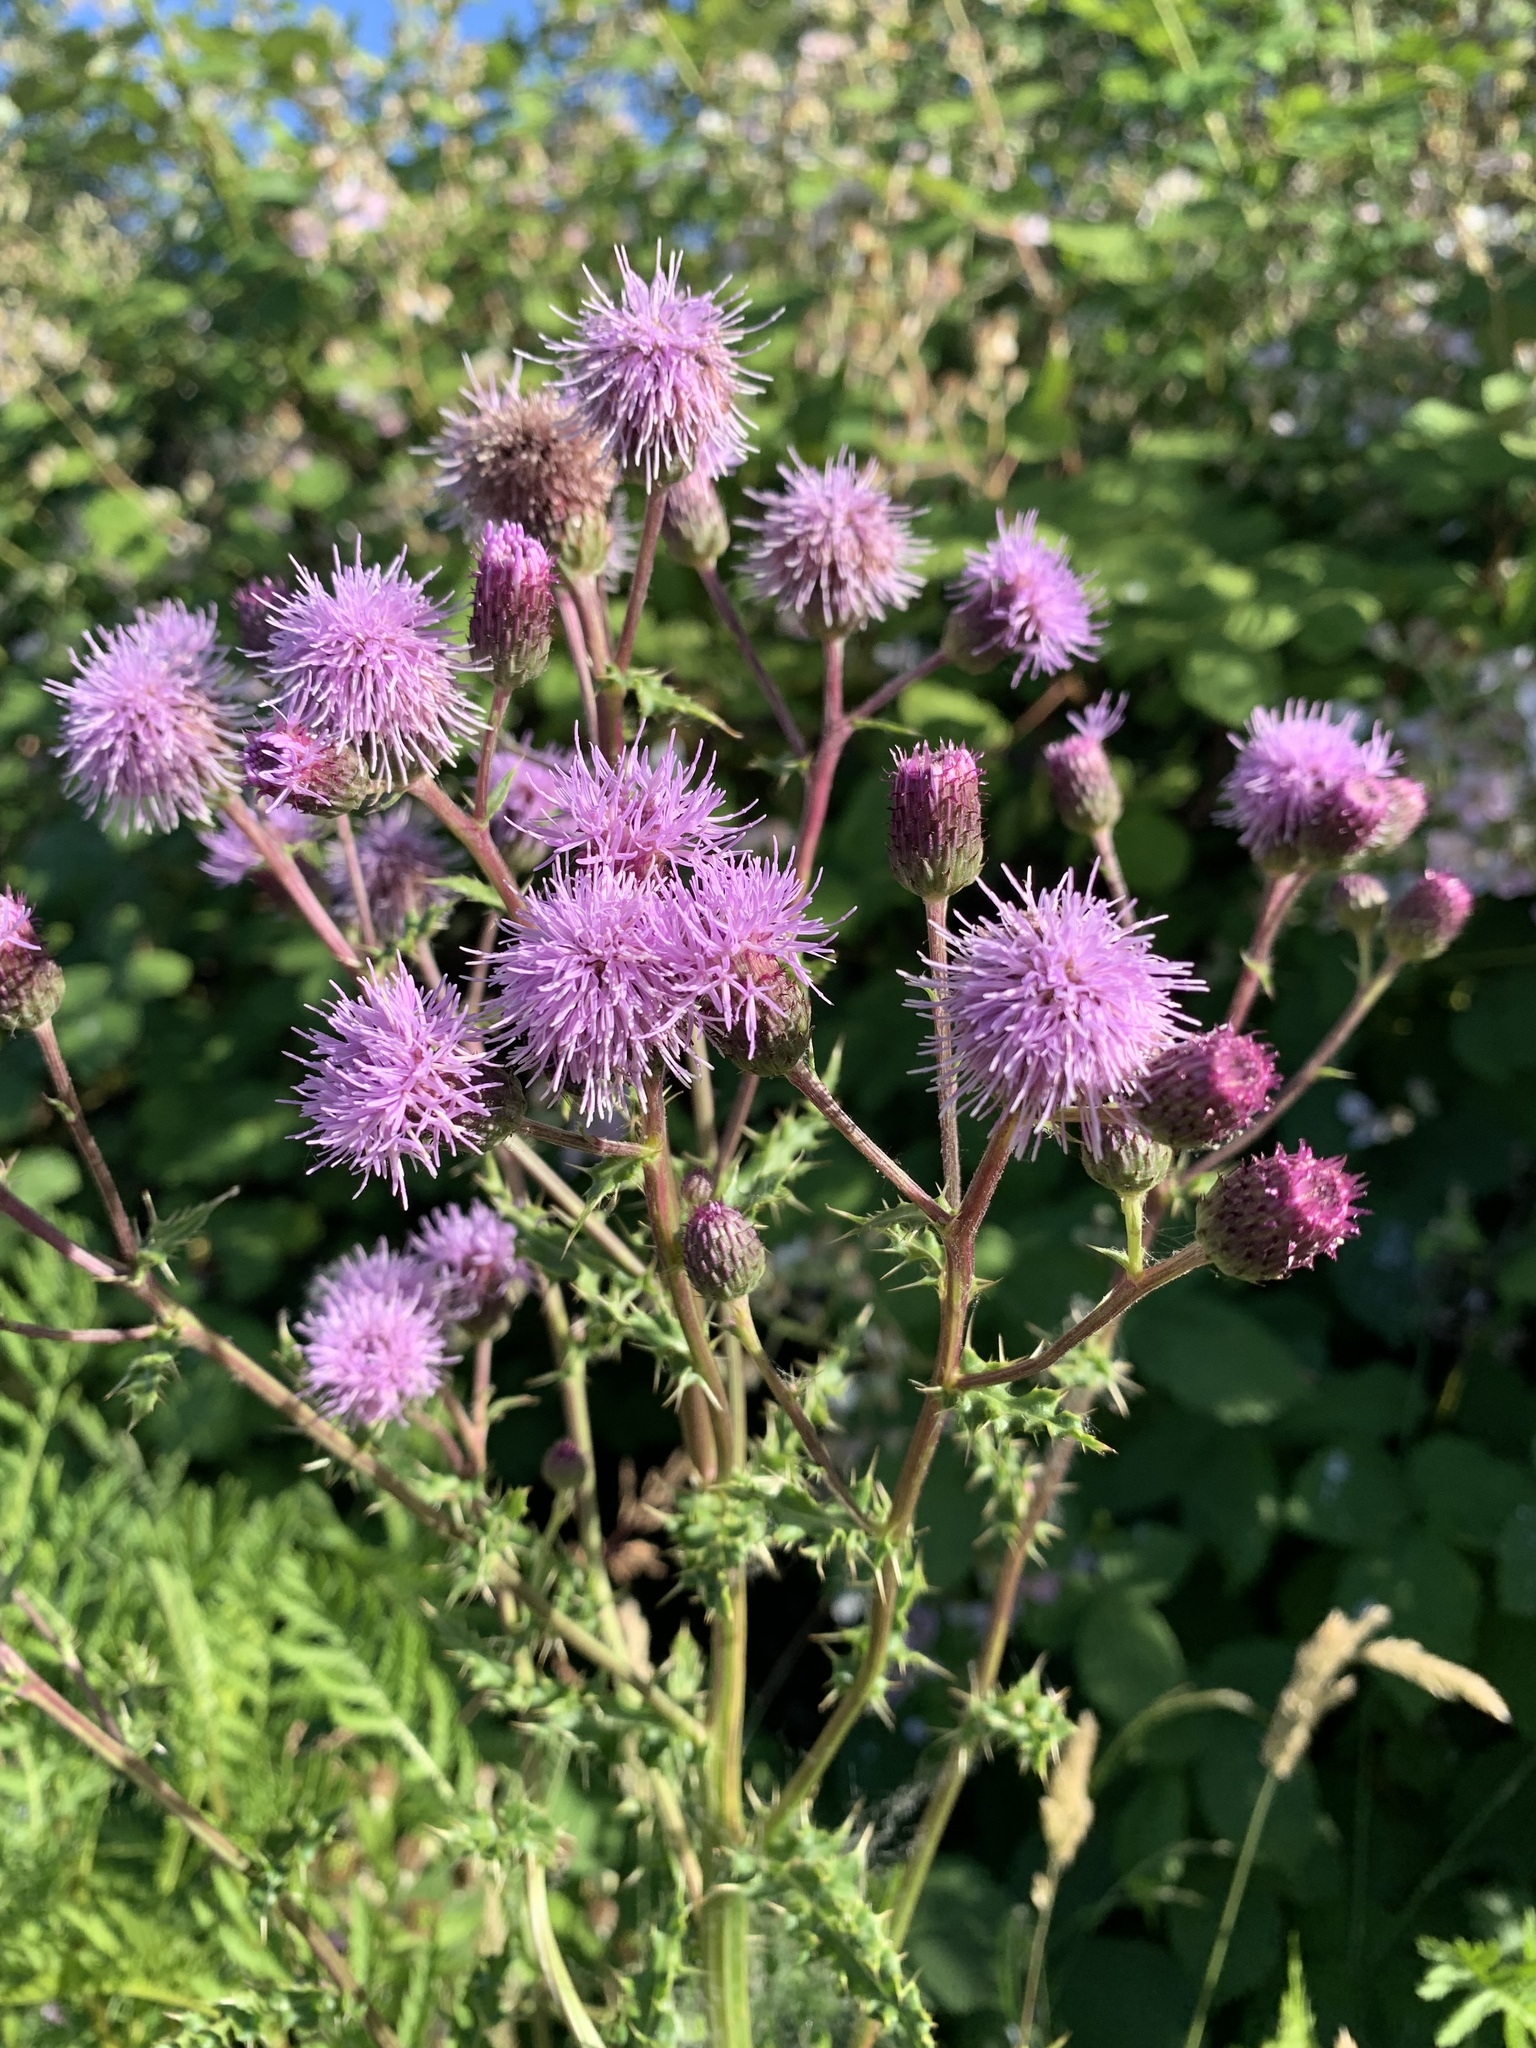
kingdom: Plantae
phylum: Tracheophyta
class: Magnoliopsida
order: Asterales
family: Asteraceae
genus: Cirsium
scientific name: Cirsium arvense
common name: Creeping thistle
